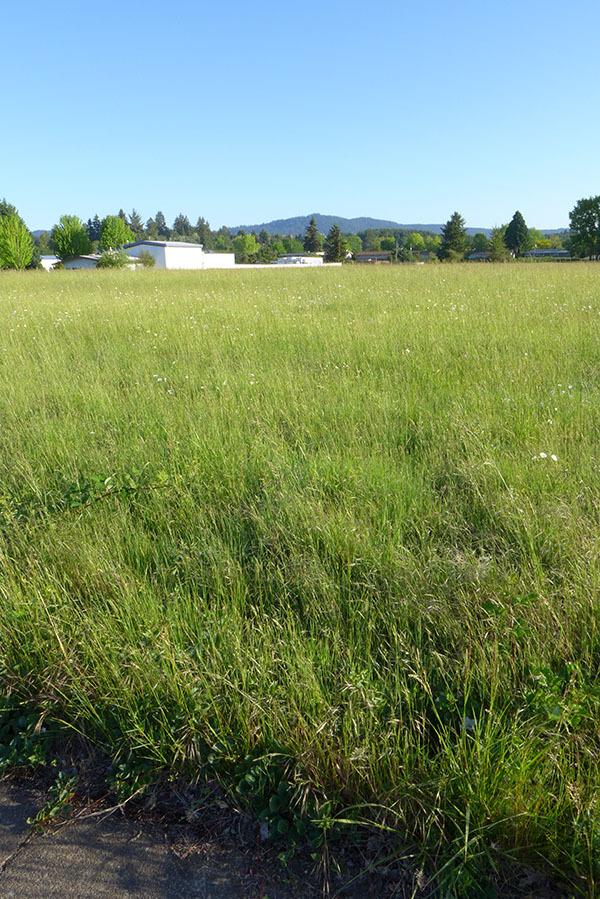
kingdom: Plantae
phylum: Tracheophyta
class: Magnoliopsida
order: Solanales
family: Convolvulaceae
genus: Calystegia
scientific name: Calystegia atriplicifolia
